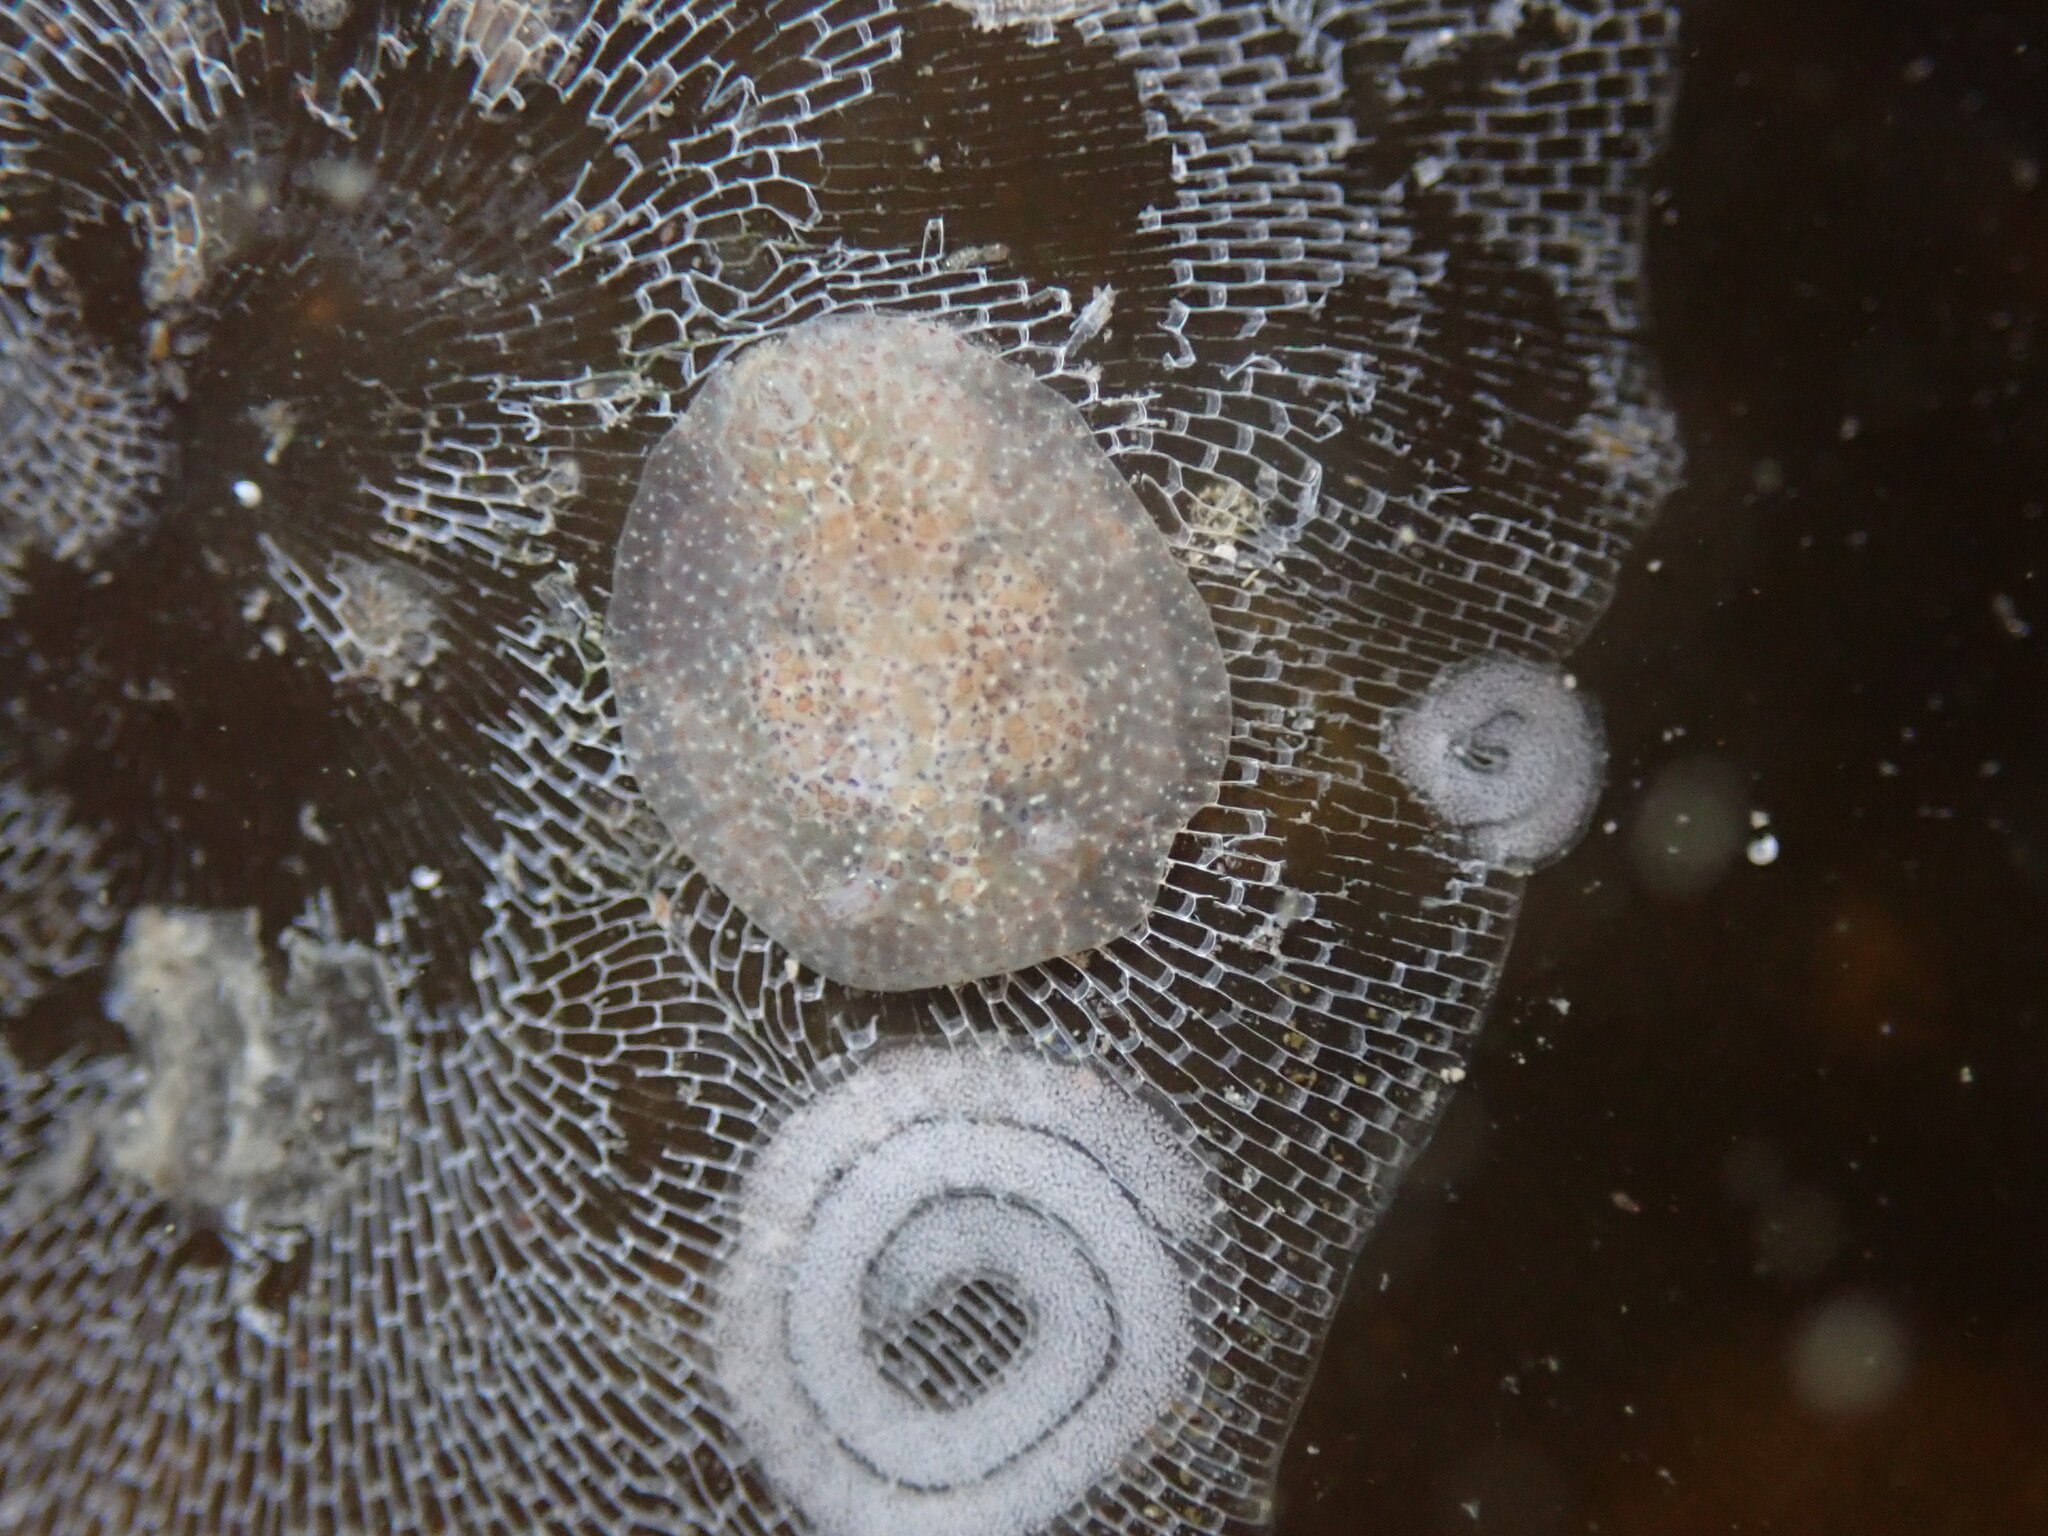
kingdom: Animalia
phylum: Mollusca
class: Gastropoda
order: Nudibranchia
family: Corambidae
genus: Corambe
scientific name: Corambe pacifica
